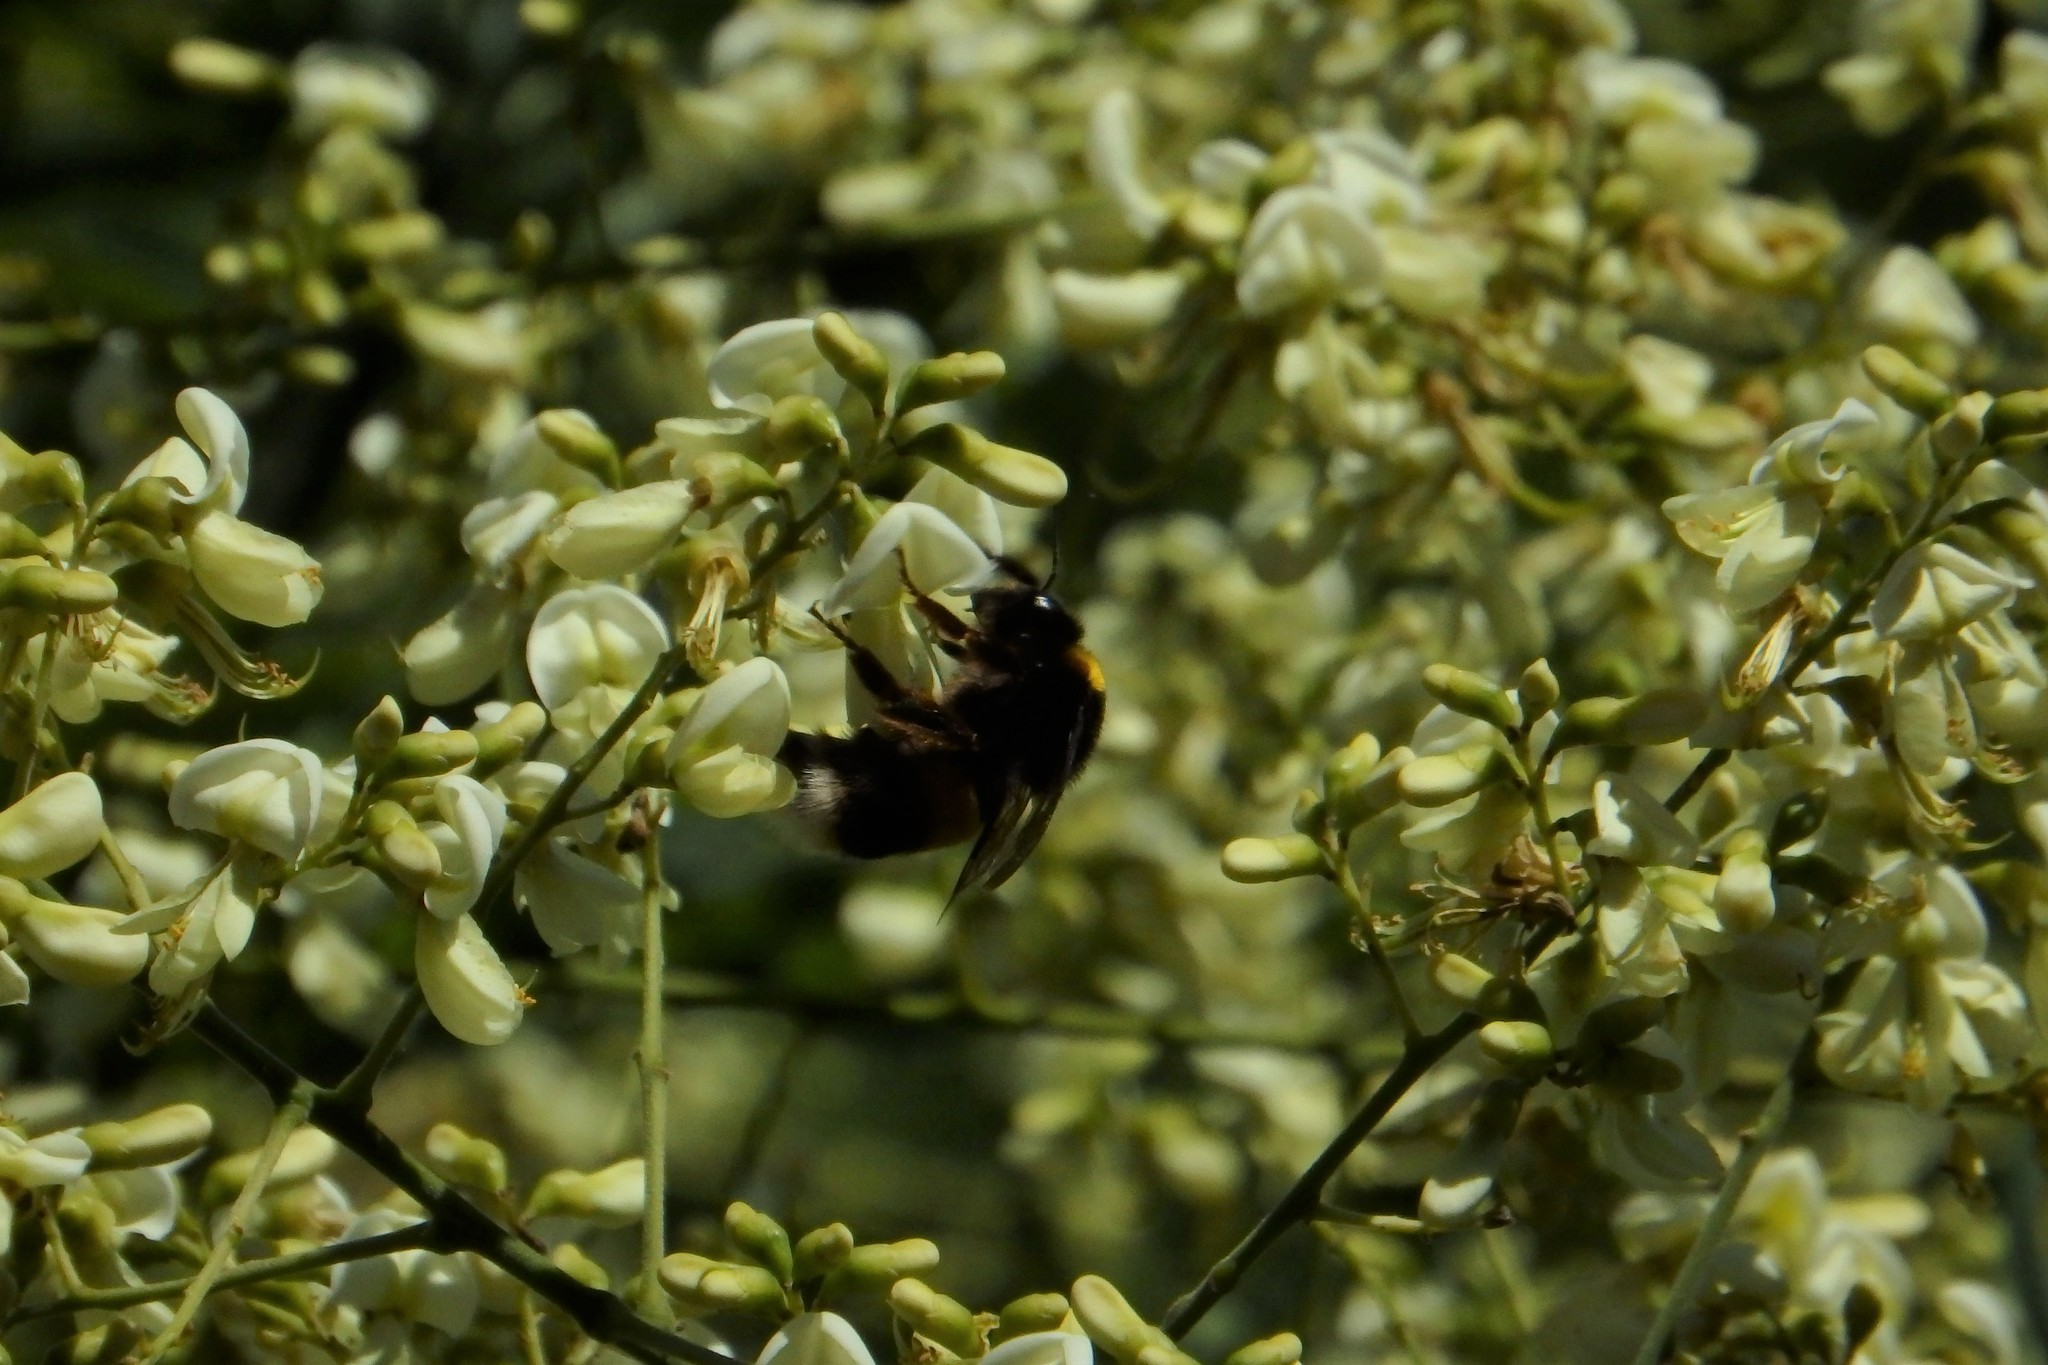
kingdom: Animalia
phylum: Arthropoda
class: Insecta
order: Hymenoptera
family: Apidae
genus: Bombus
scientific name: Bombus
